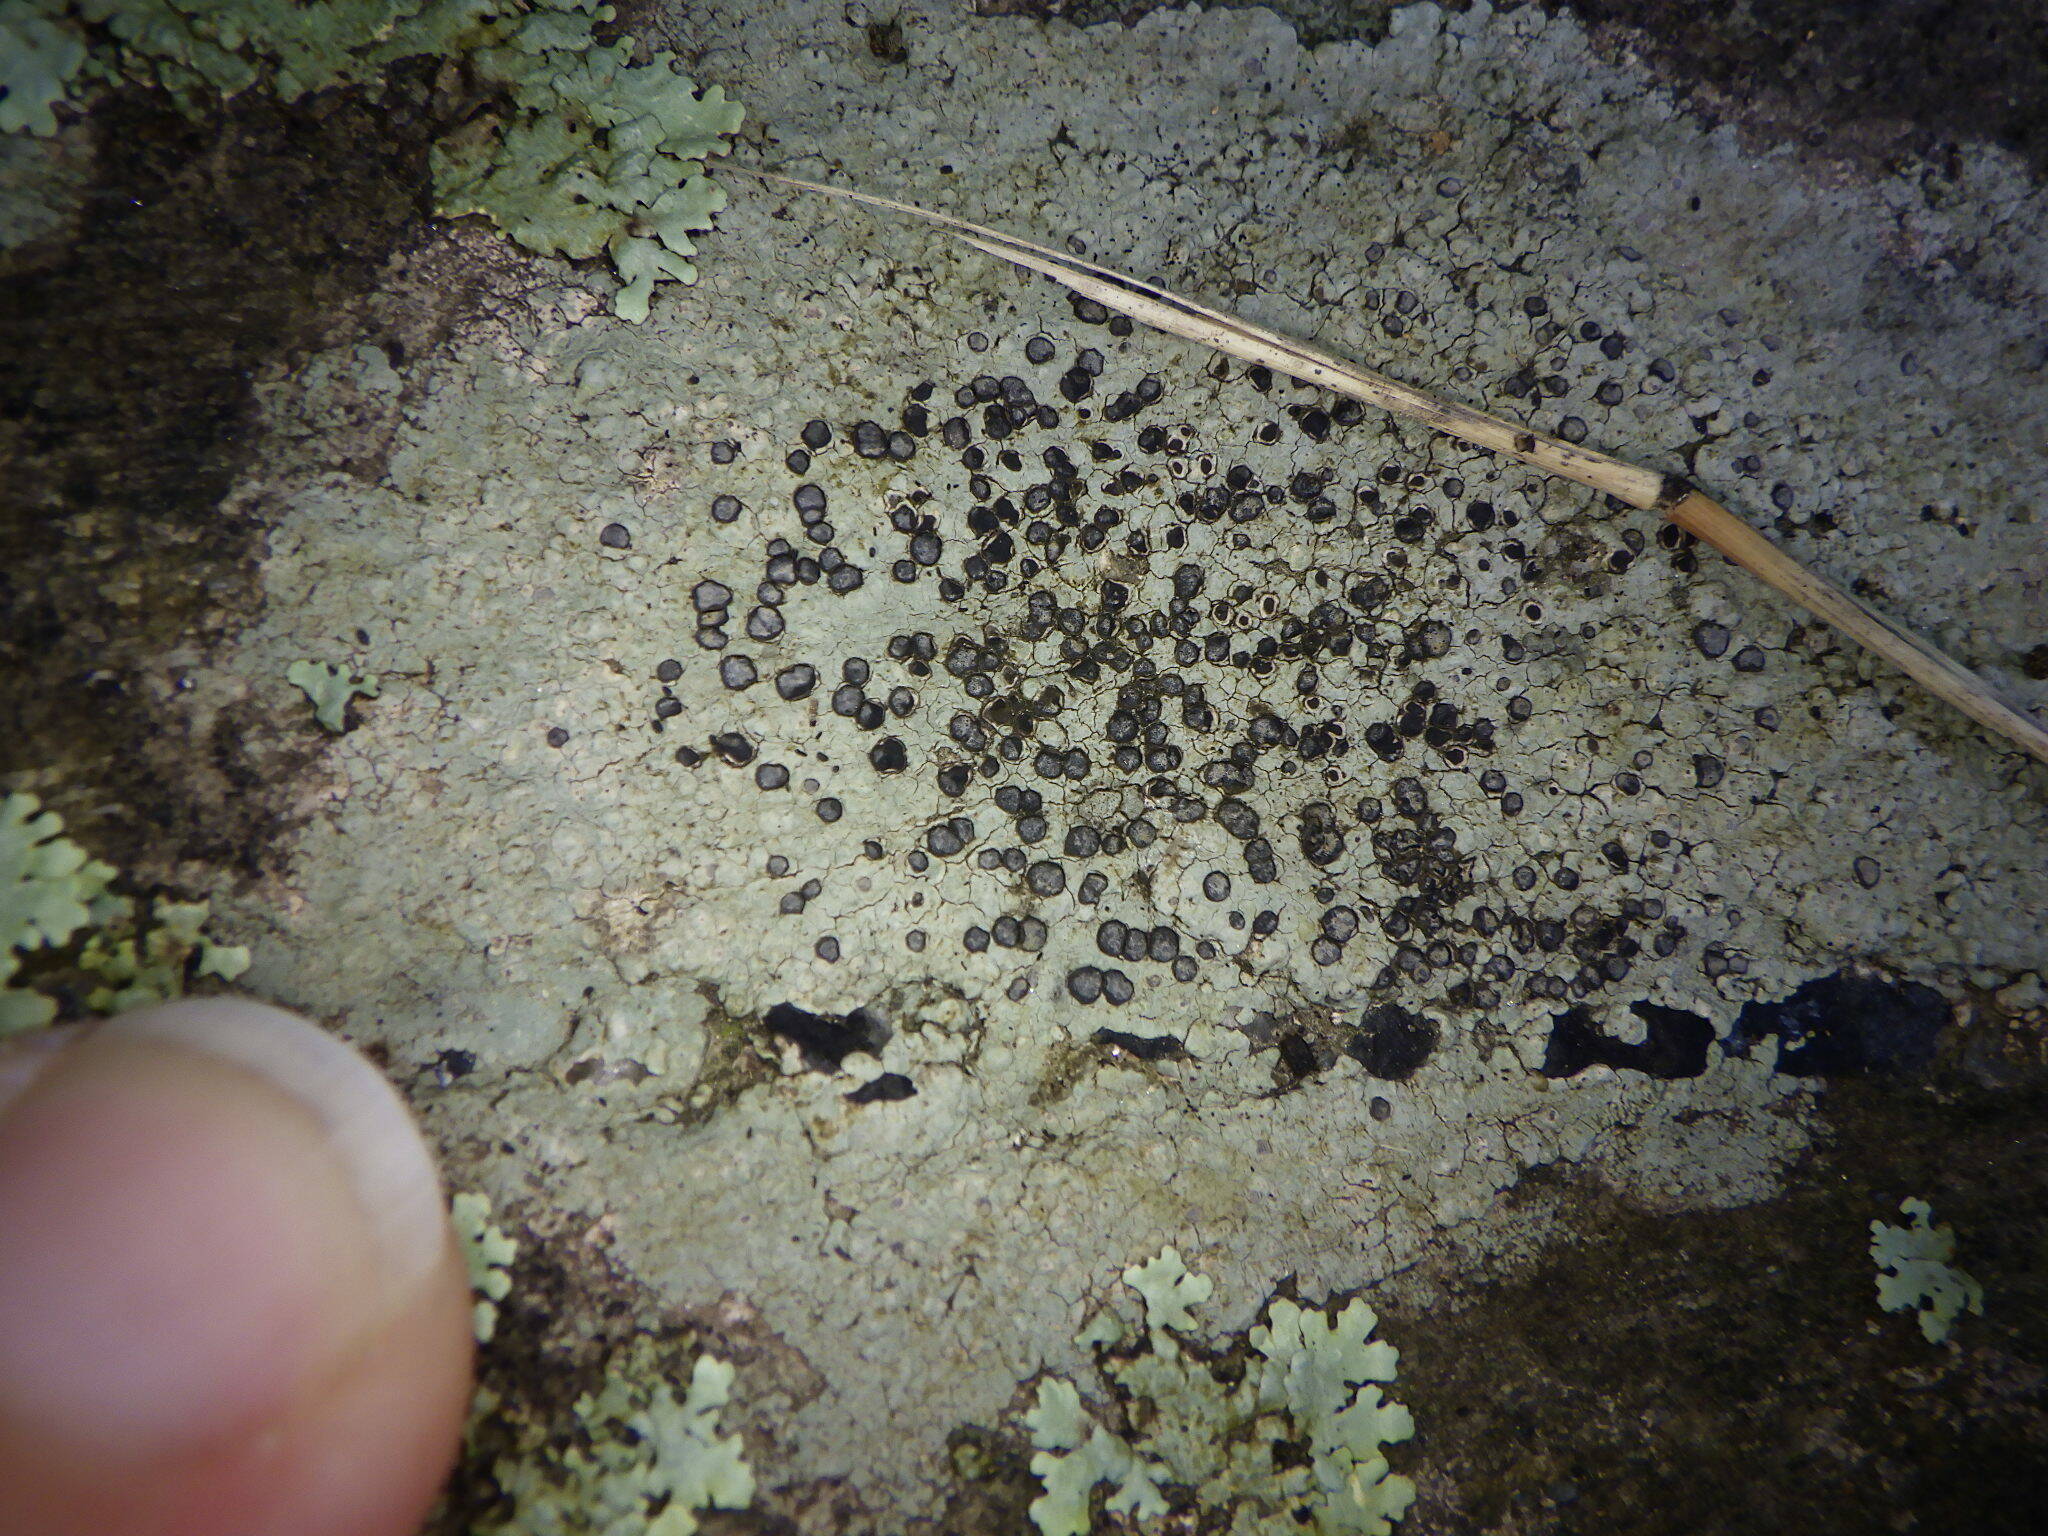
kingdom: Fungi
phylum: Ascomycota
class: Lecanoromycetes
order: Lecideales
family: Lecideaceae
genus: Porpidia
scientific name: Porpidia albocaerulescens
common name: Smokey-eyed boulder lichen
